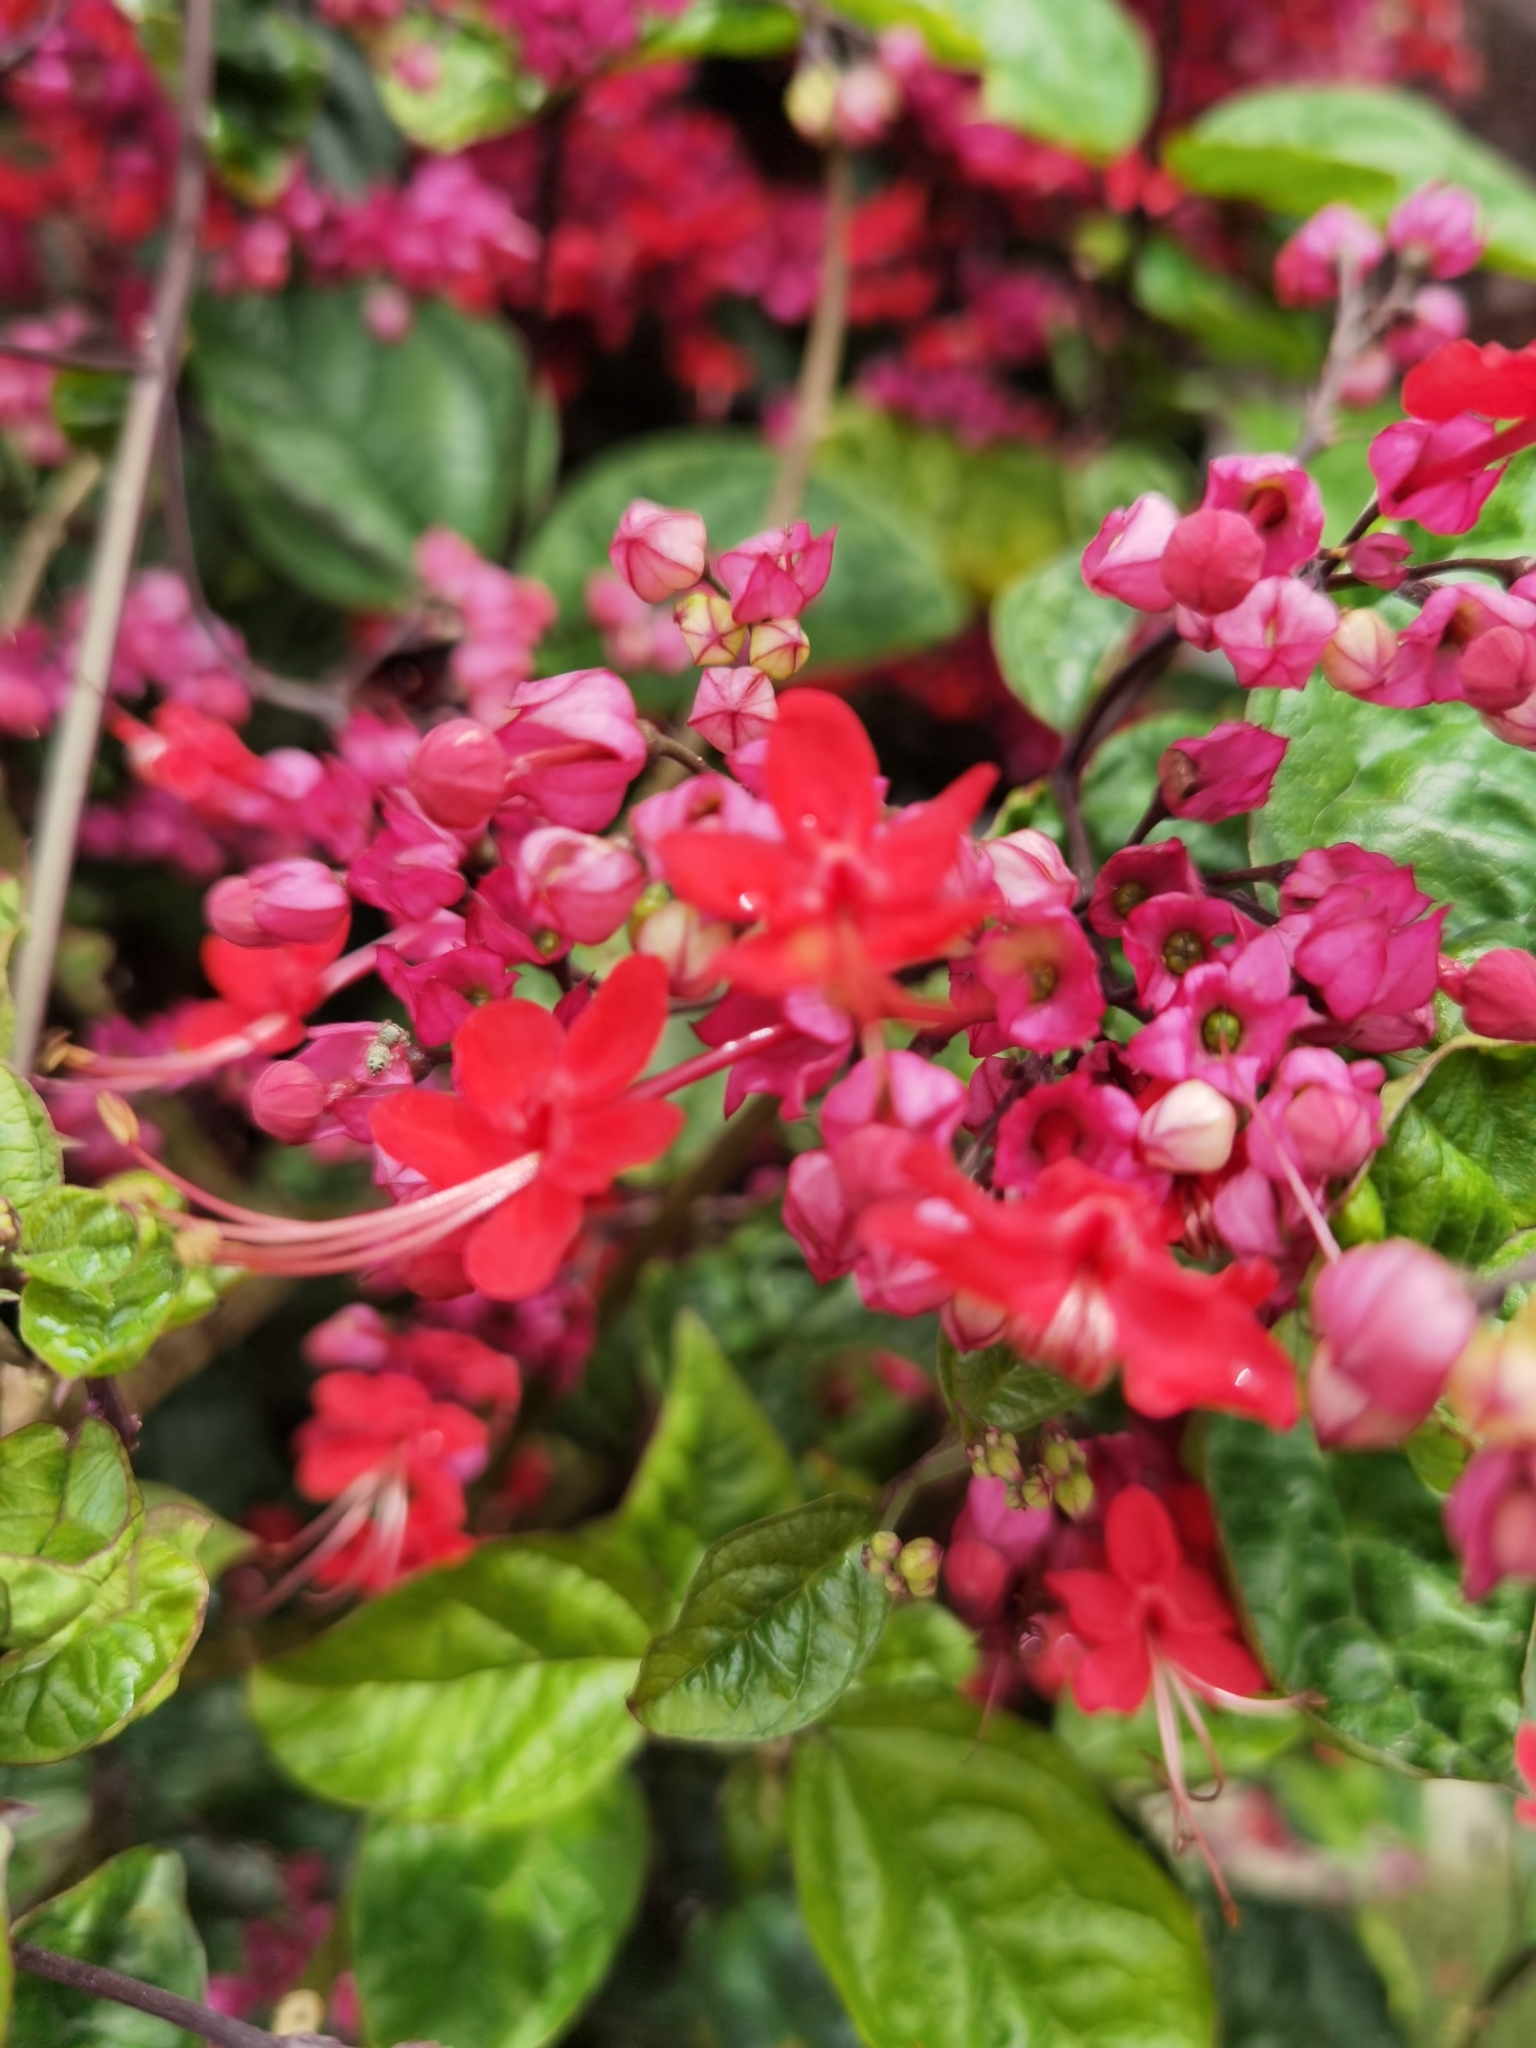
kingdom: Plantae
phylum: Tracheophyta
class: Magnoliopsida
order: Lamiales
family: Lamiaceae
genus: Clerodendrum
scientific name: Clerodendrum speciosum
